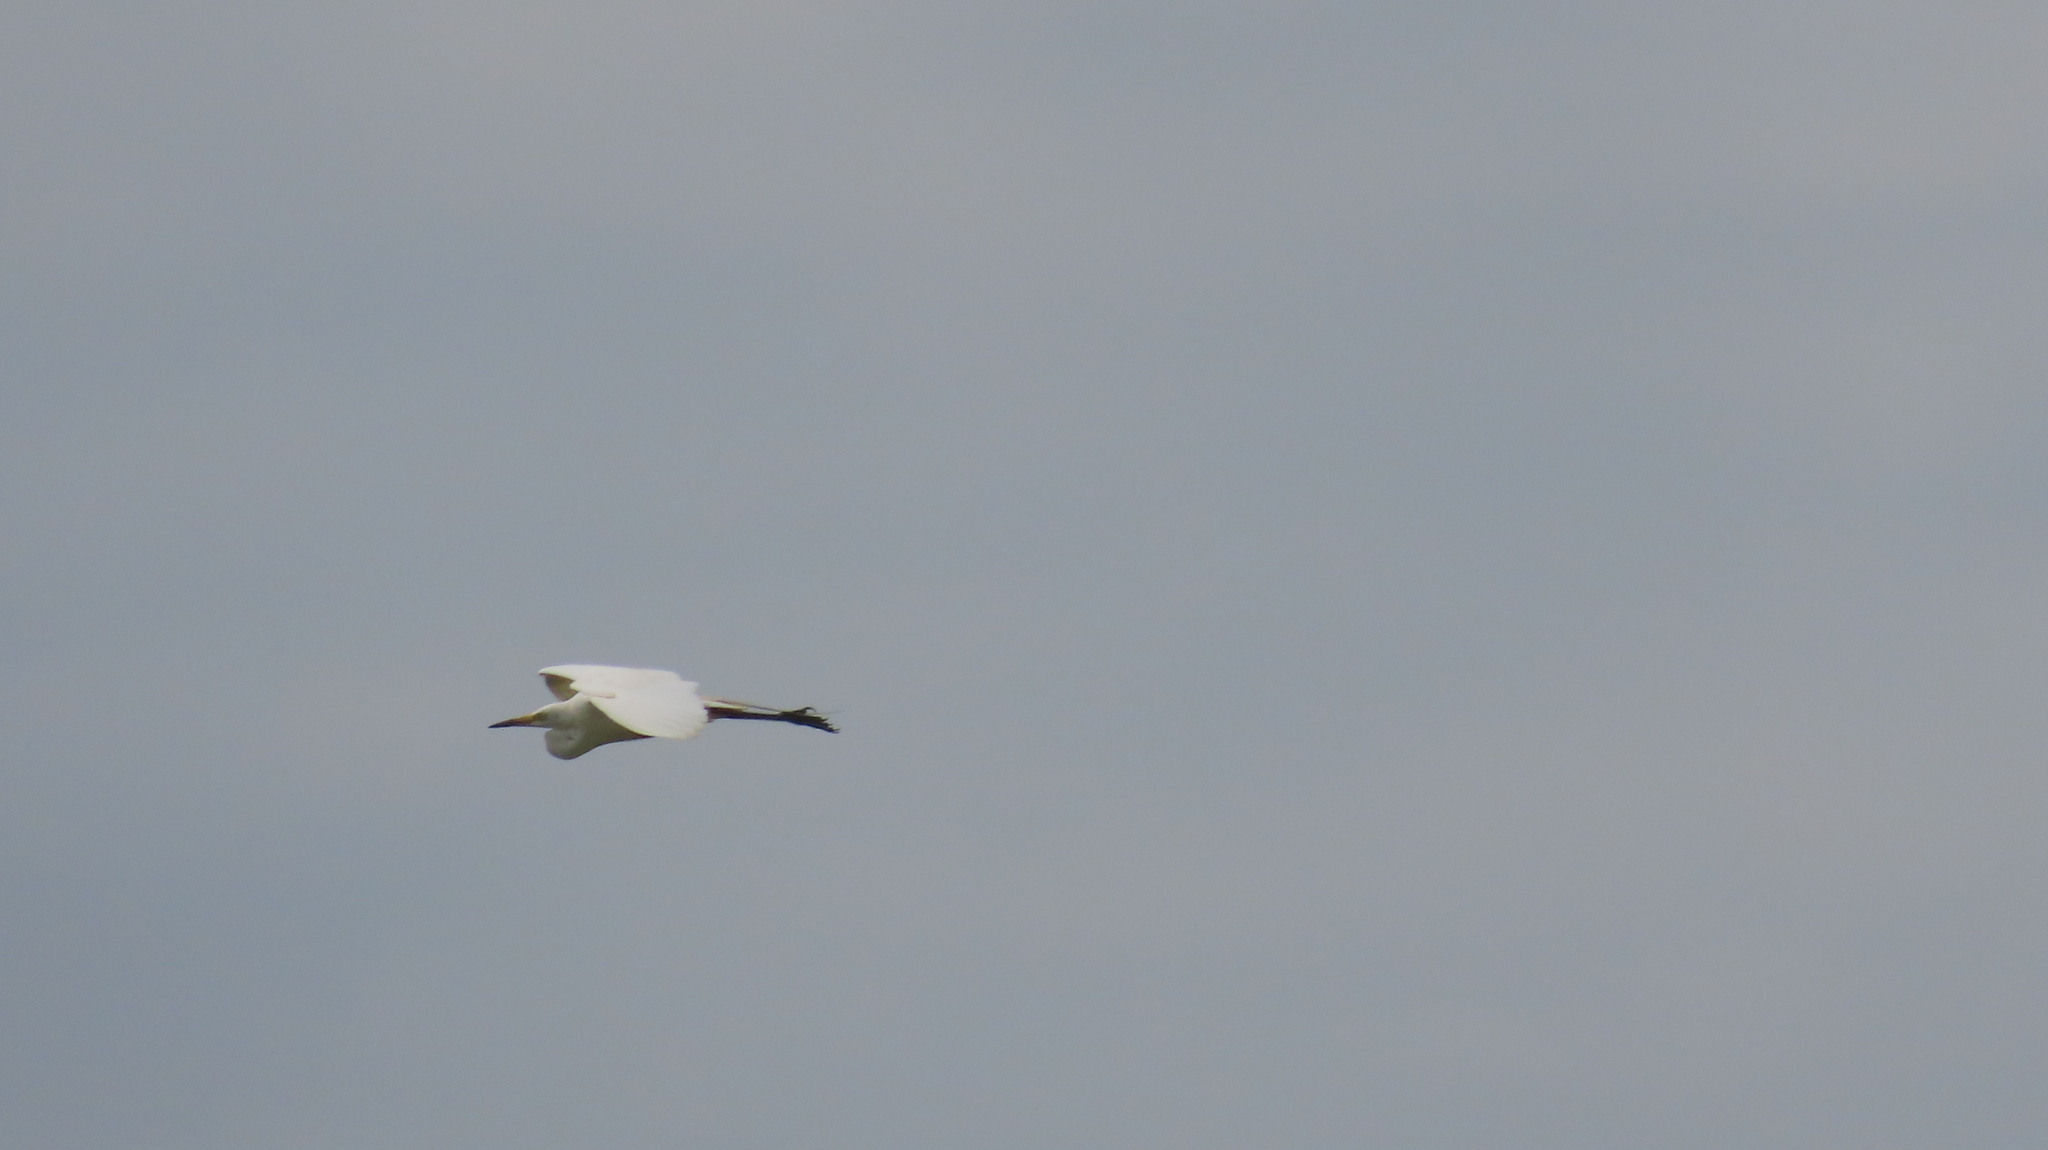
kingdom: Animalia
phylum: Chordata
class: Aves
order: Pelecaniformes
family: Ardeidae
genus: Egretta
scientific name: Egretta intermedia
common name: Intermediate egret
